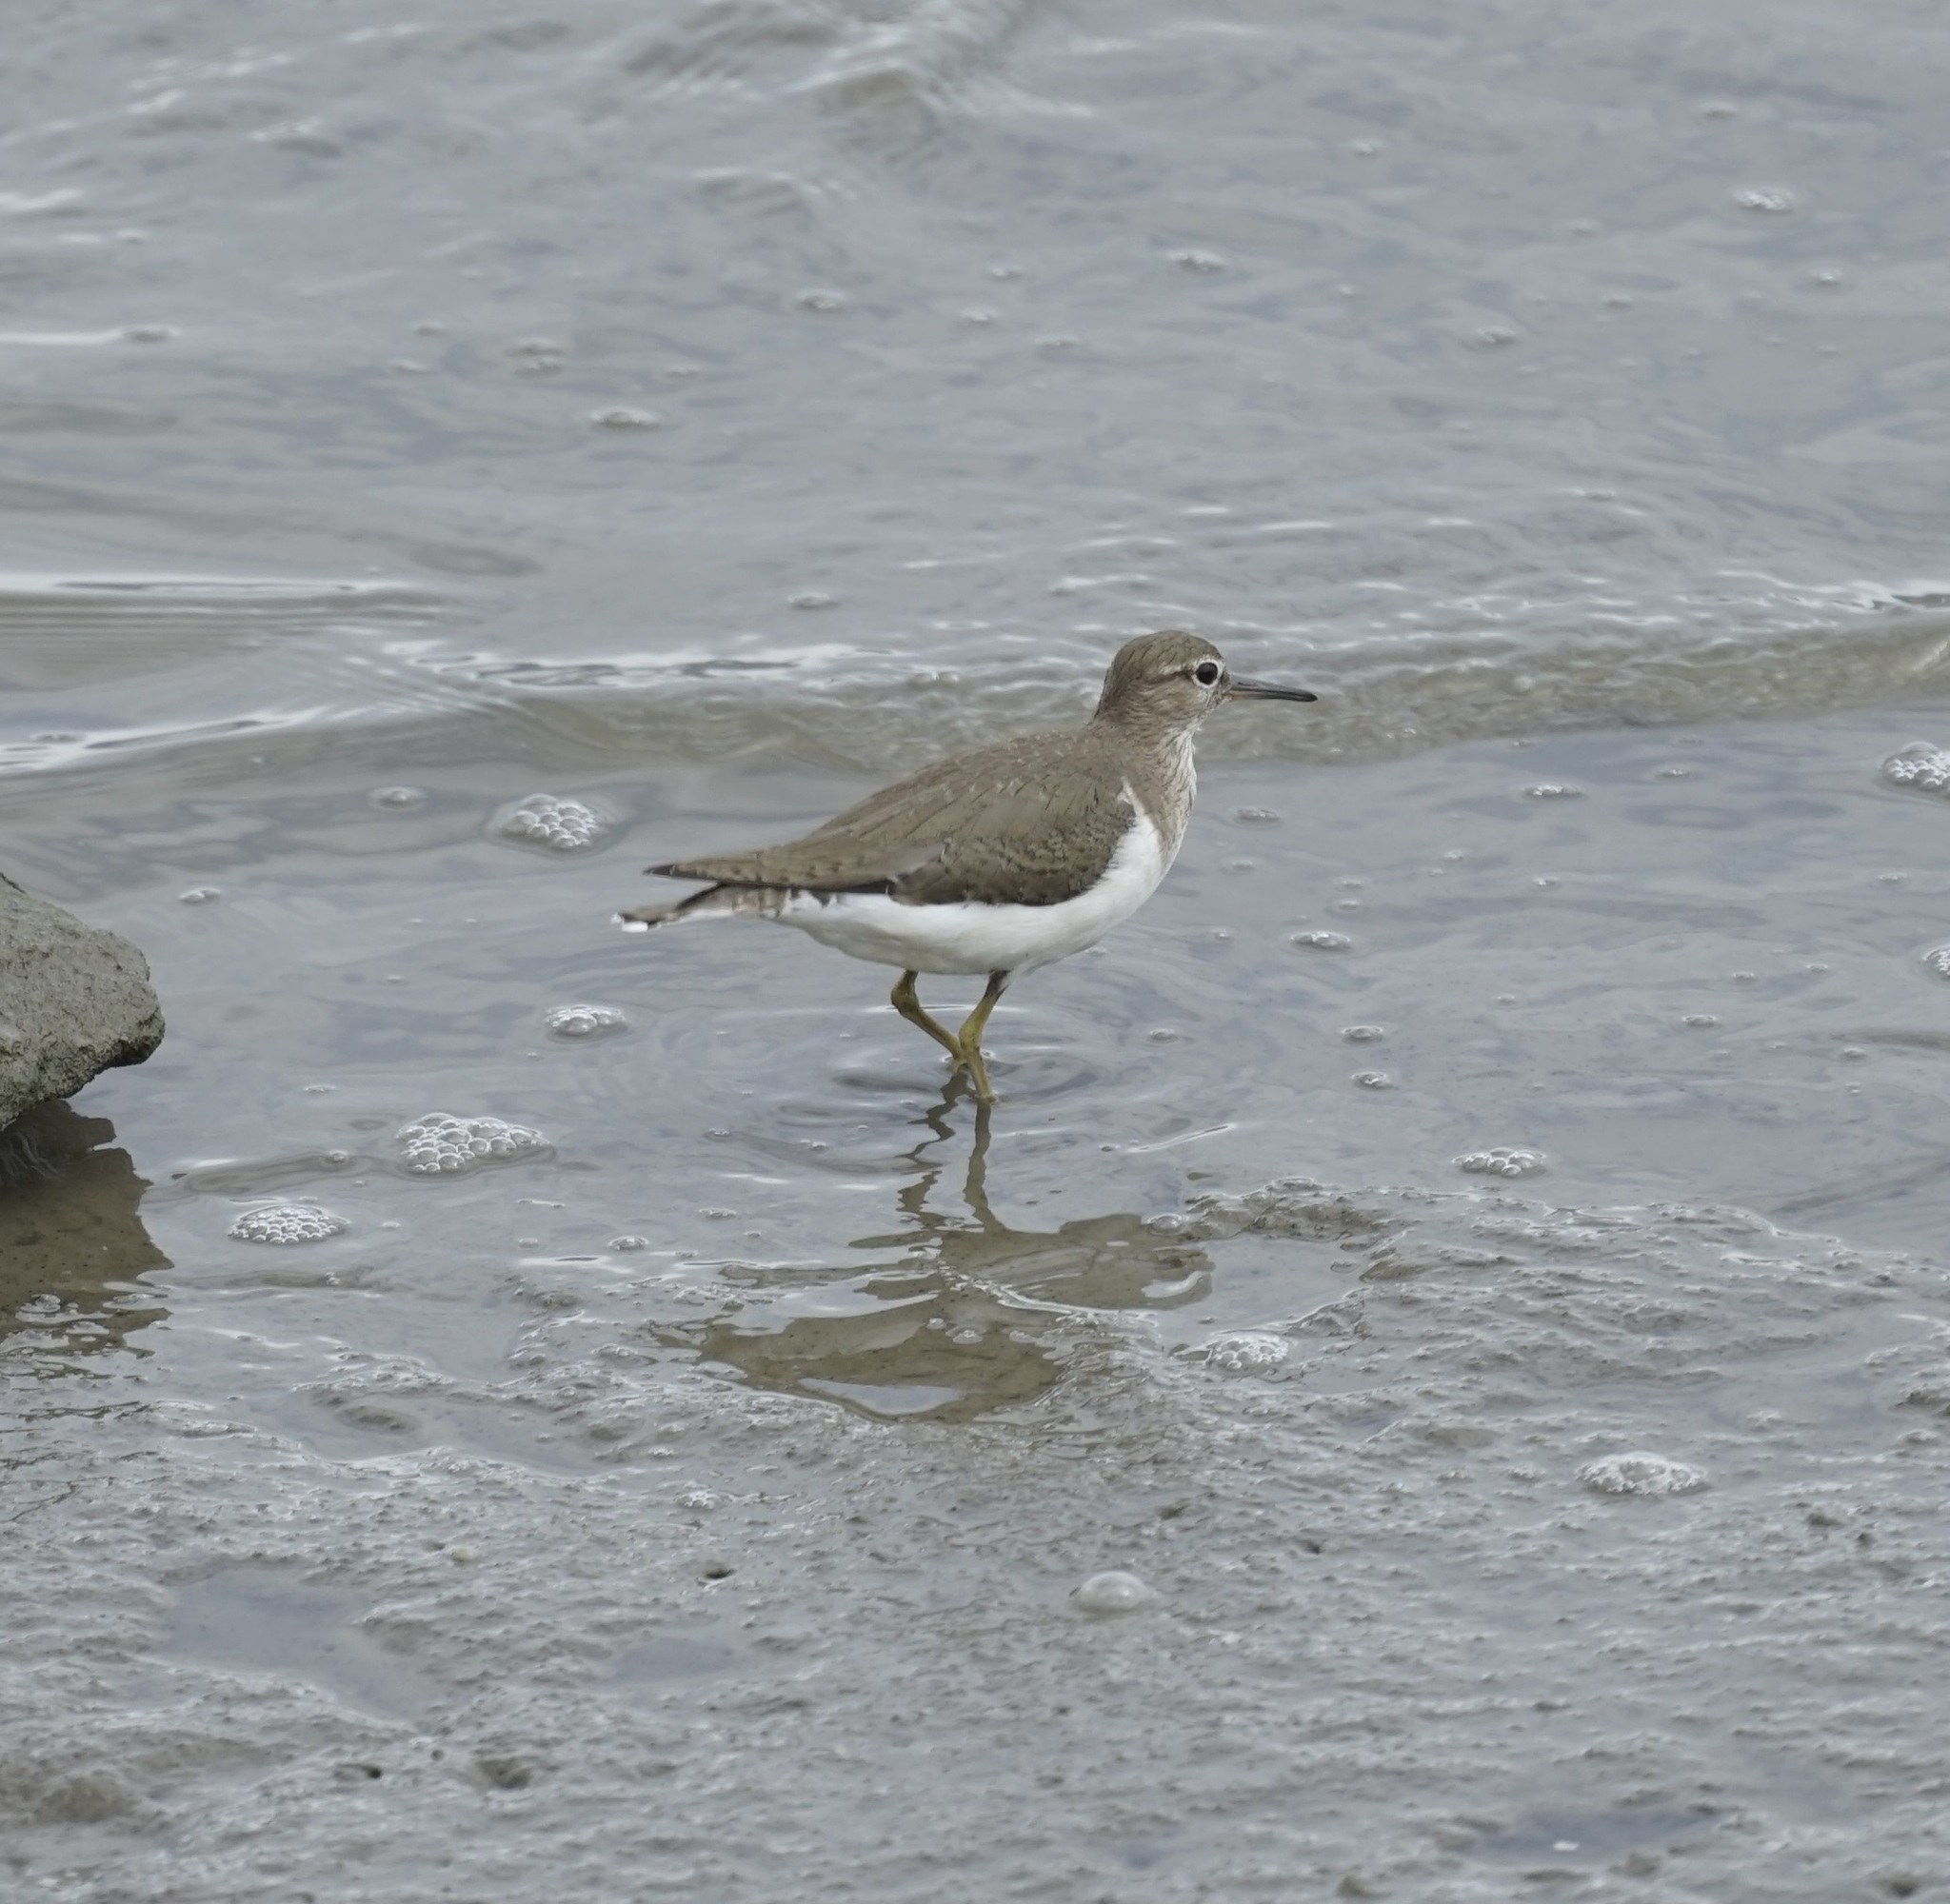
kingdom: Animalia
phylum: Chordata
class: Aves
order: Charadriiformes
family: Scolopacidae
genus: Actitis
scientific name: Actitis hypoleucos
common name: Common sandpiper
